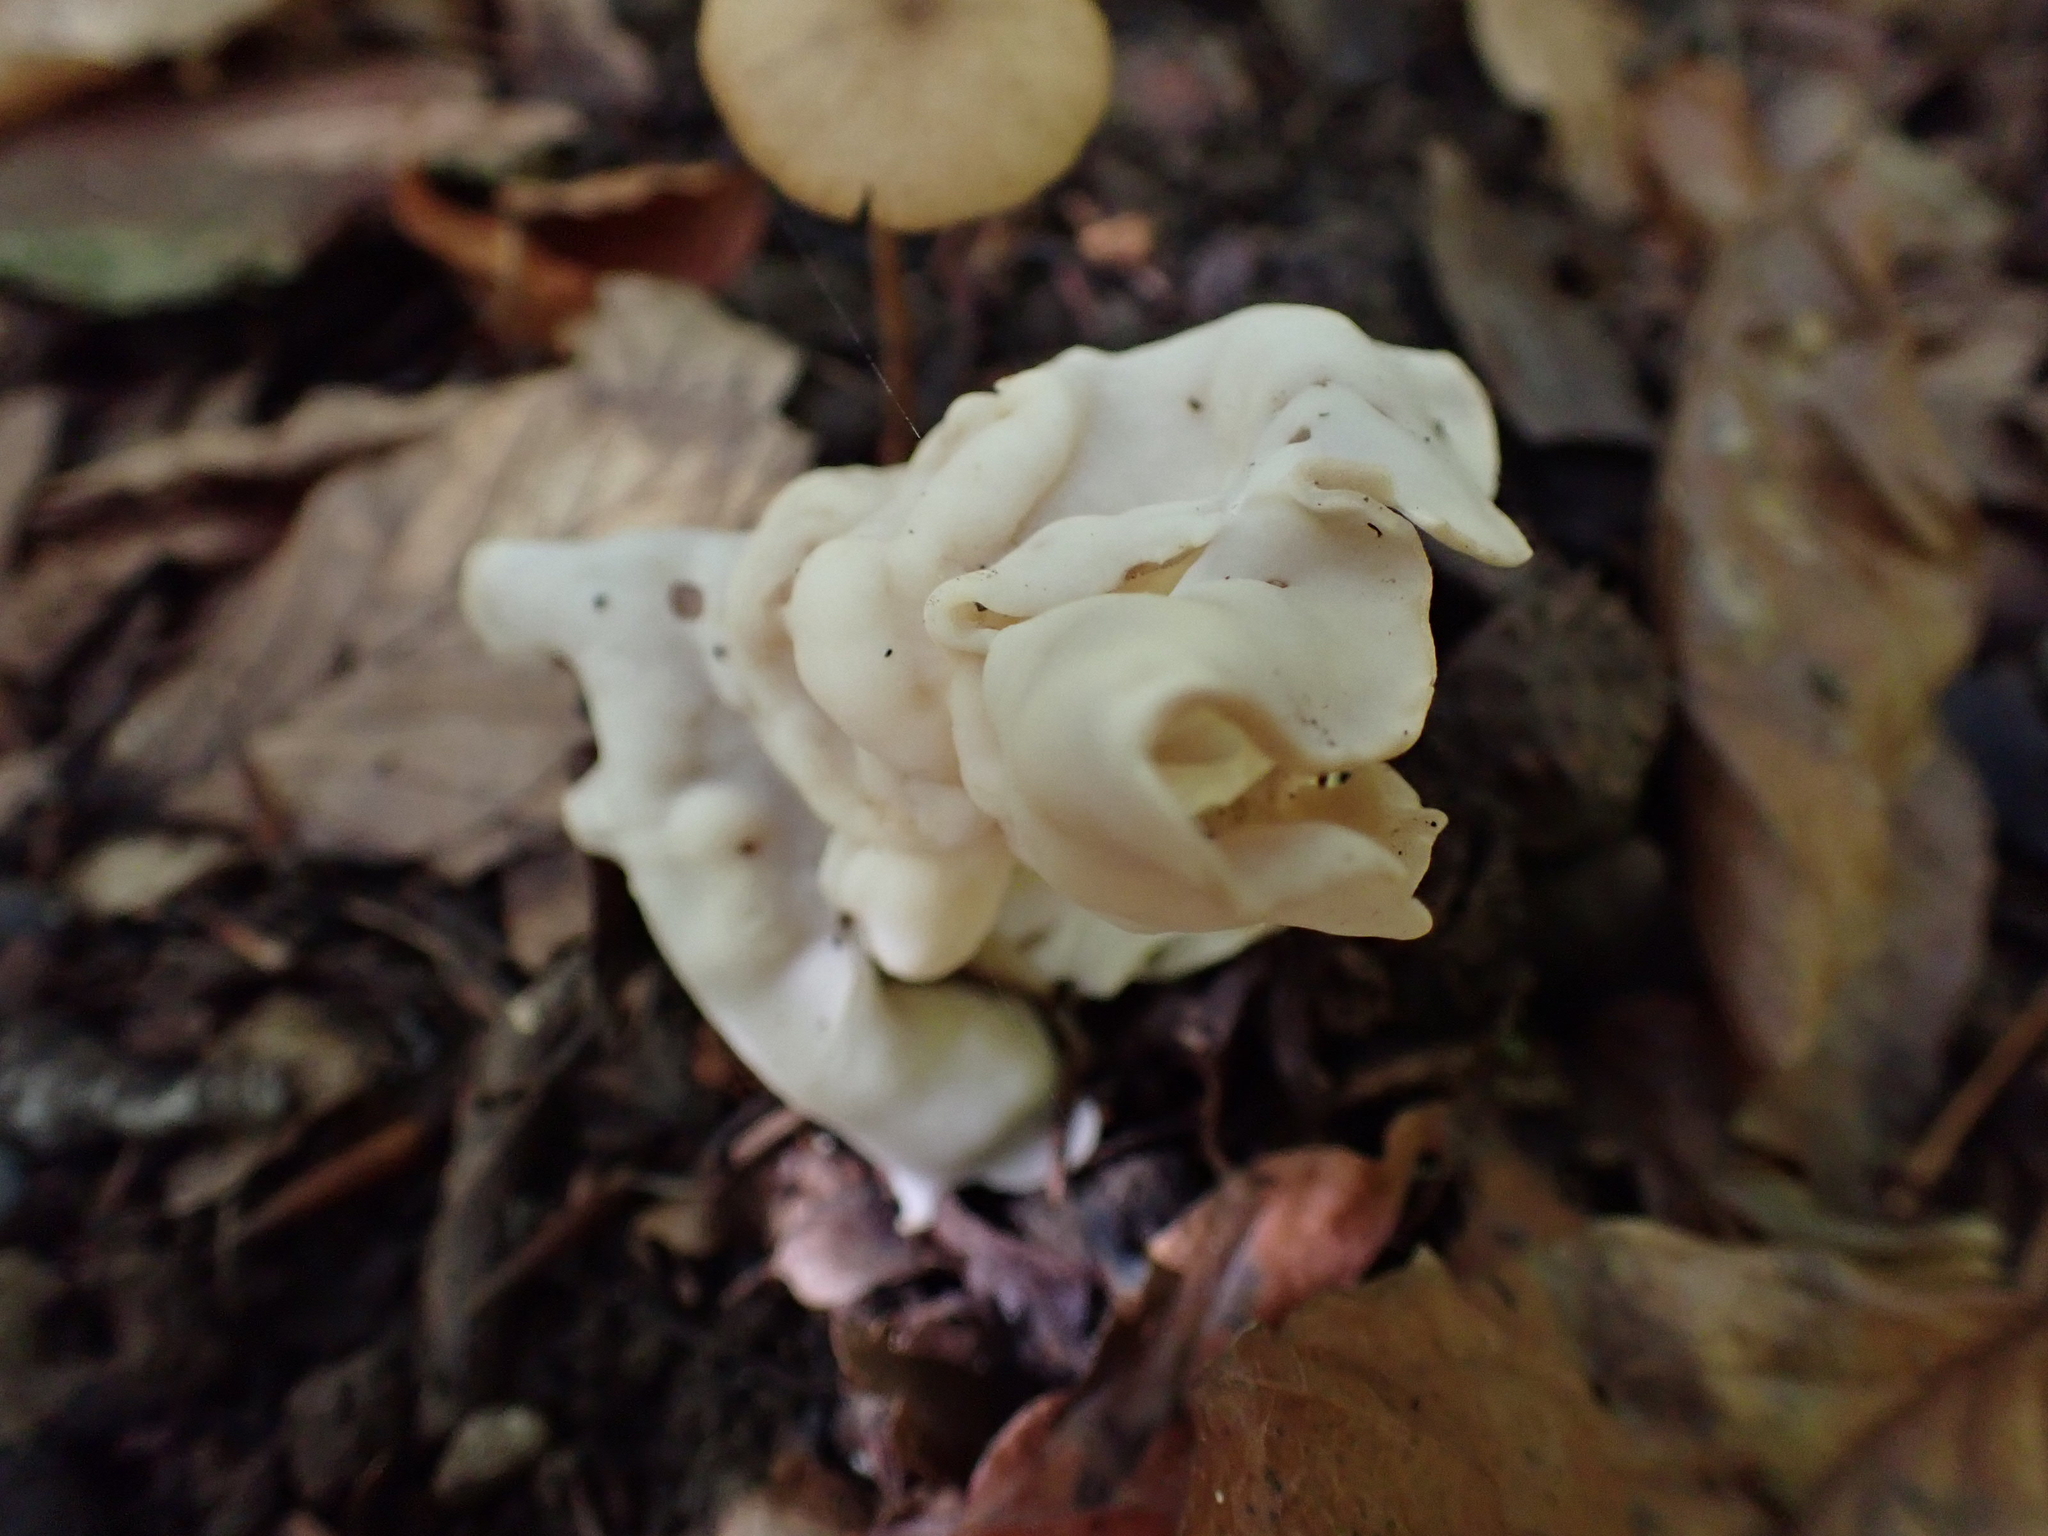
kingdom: Fungi
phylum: Ascomycota
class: Pezizomycetes
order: Pezizales
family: Helvellaceae
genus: Helvella
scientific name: Helvella crispa
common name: White saddle
